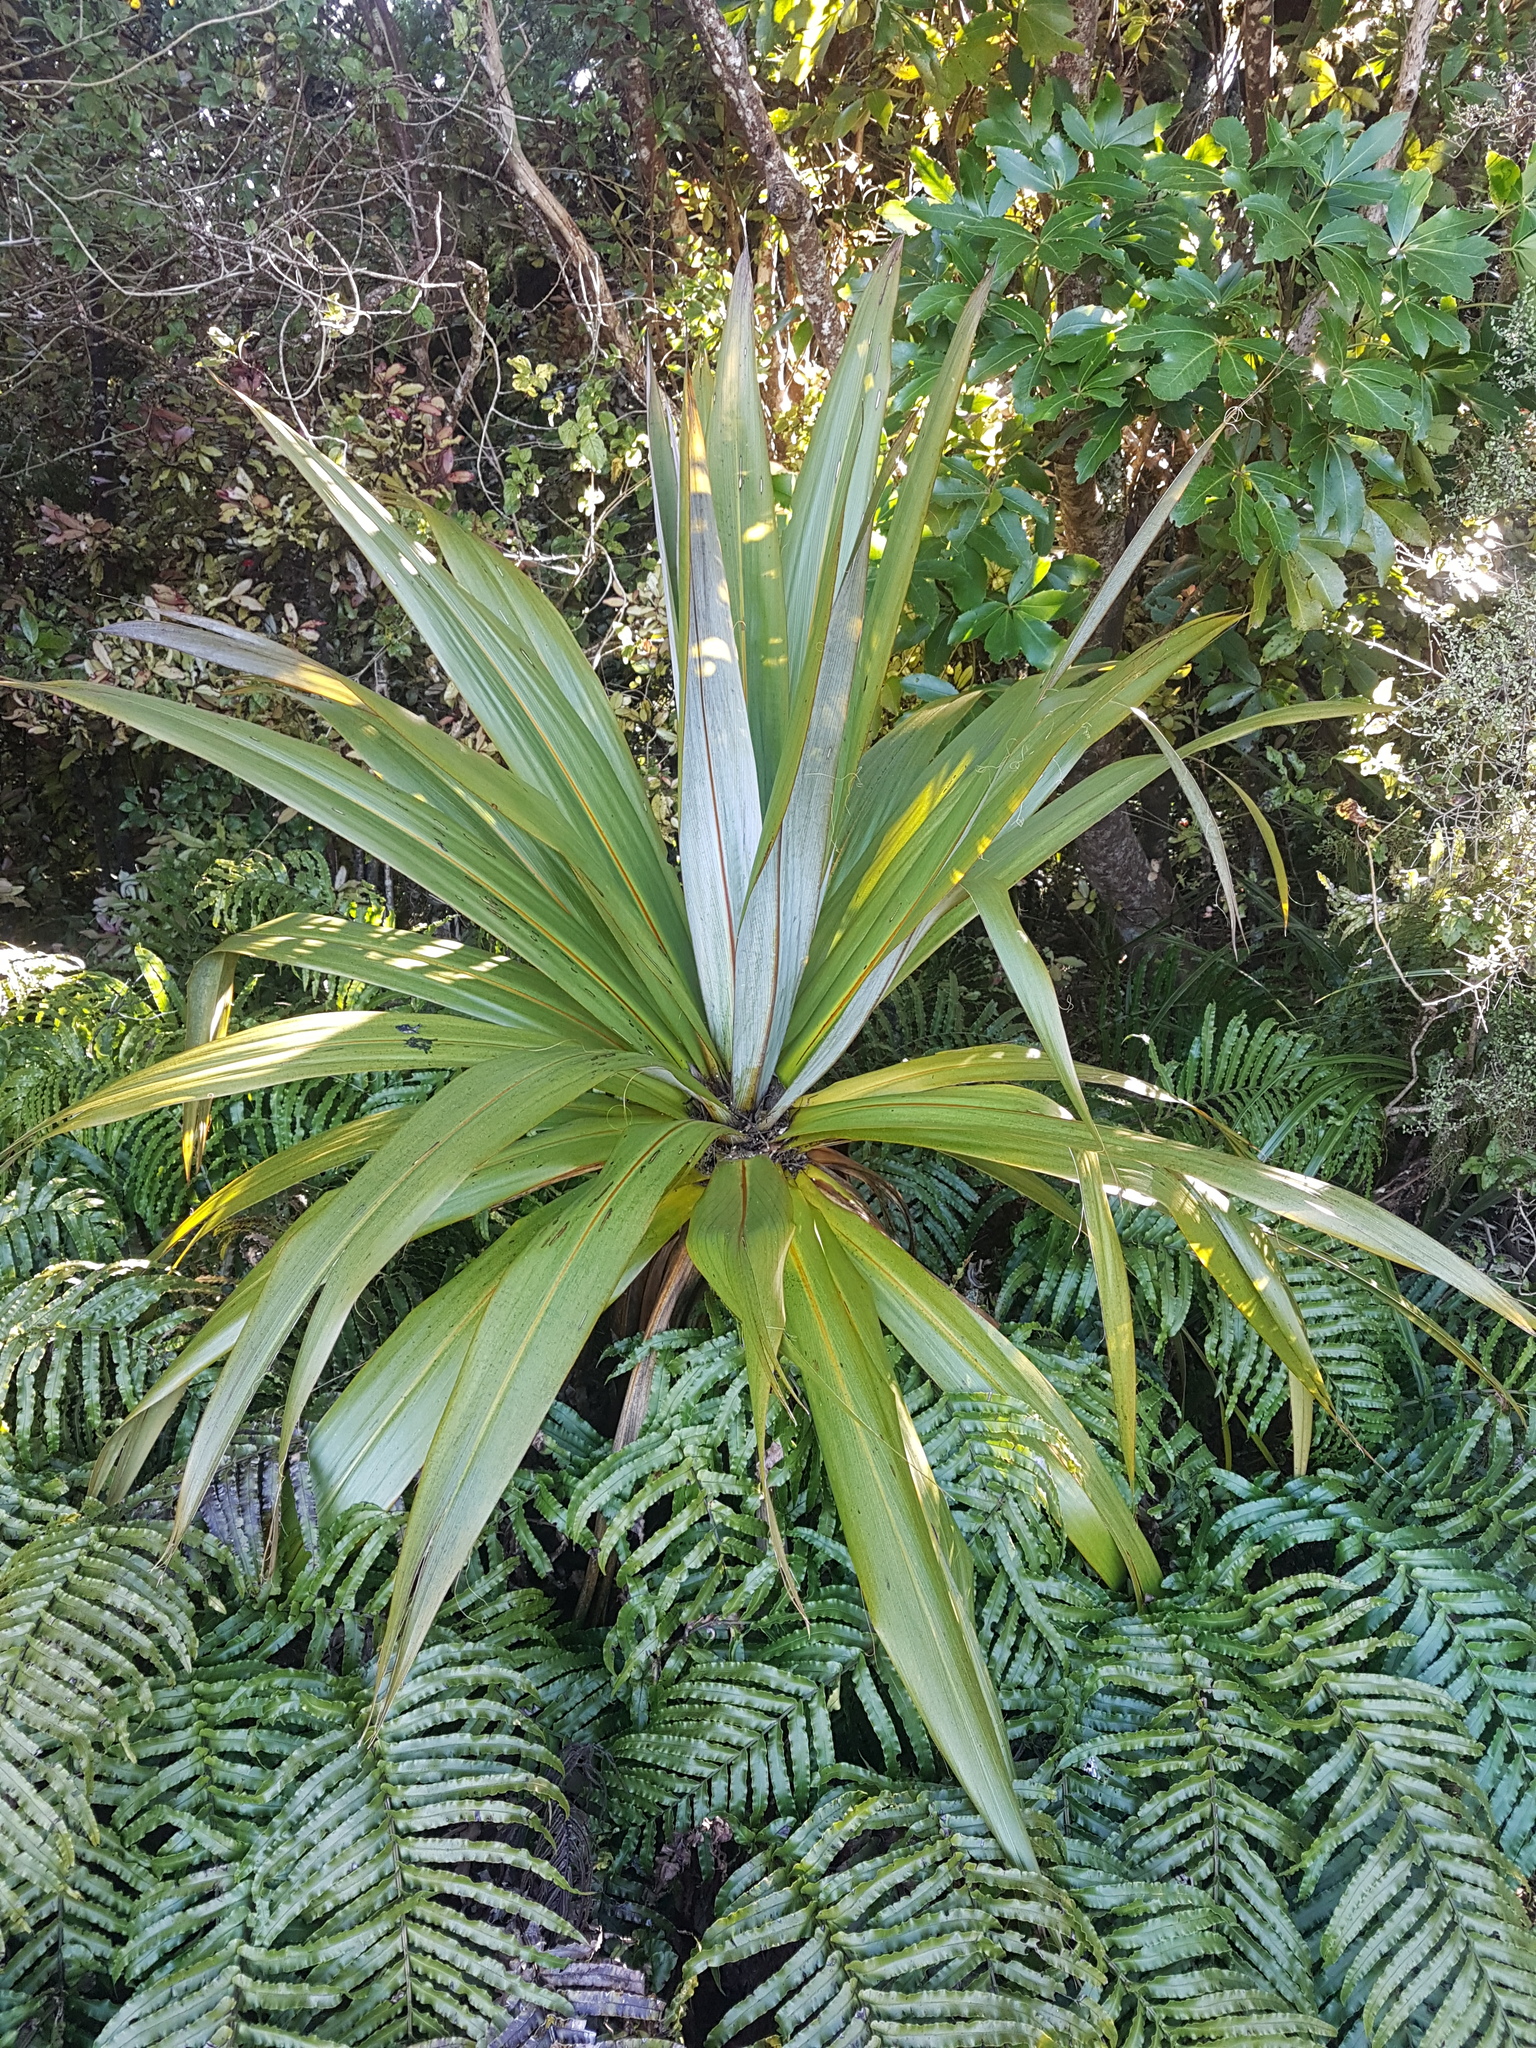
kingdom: Plantae
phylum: Tracheophyta
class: Liliopsida
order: Asparagales
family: Asparagaceae
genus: Cordyline
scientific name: Cordyline indivisa
